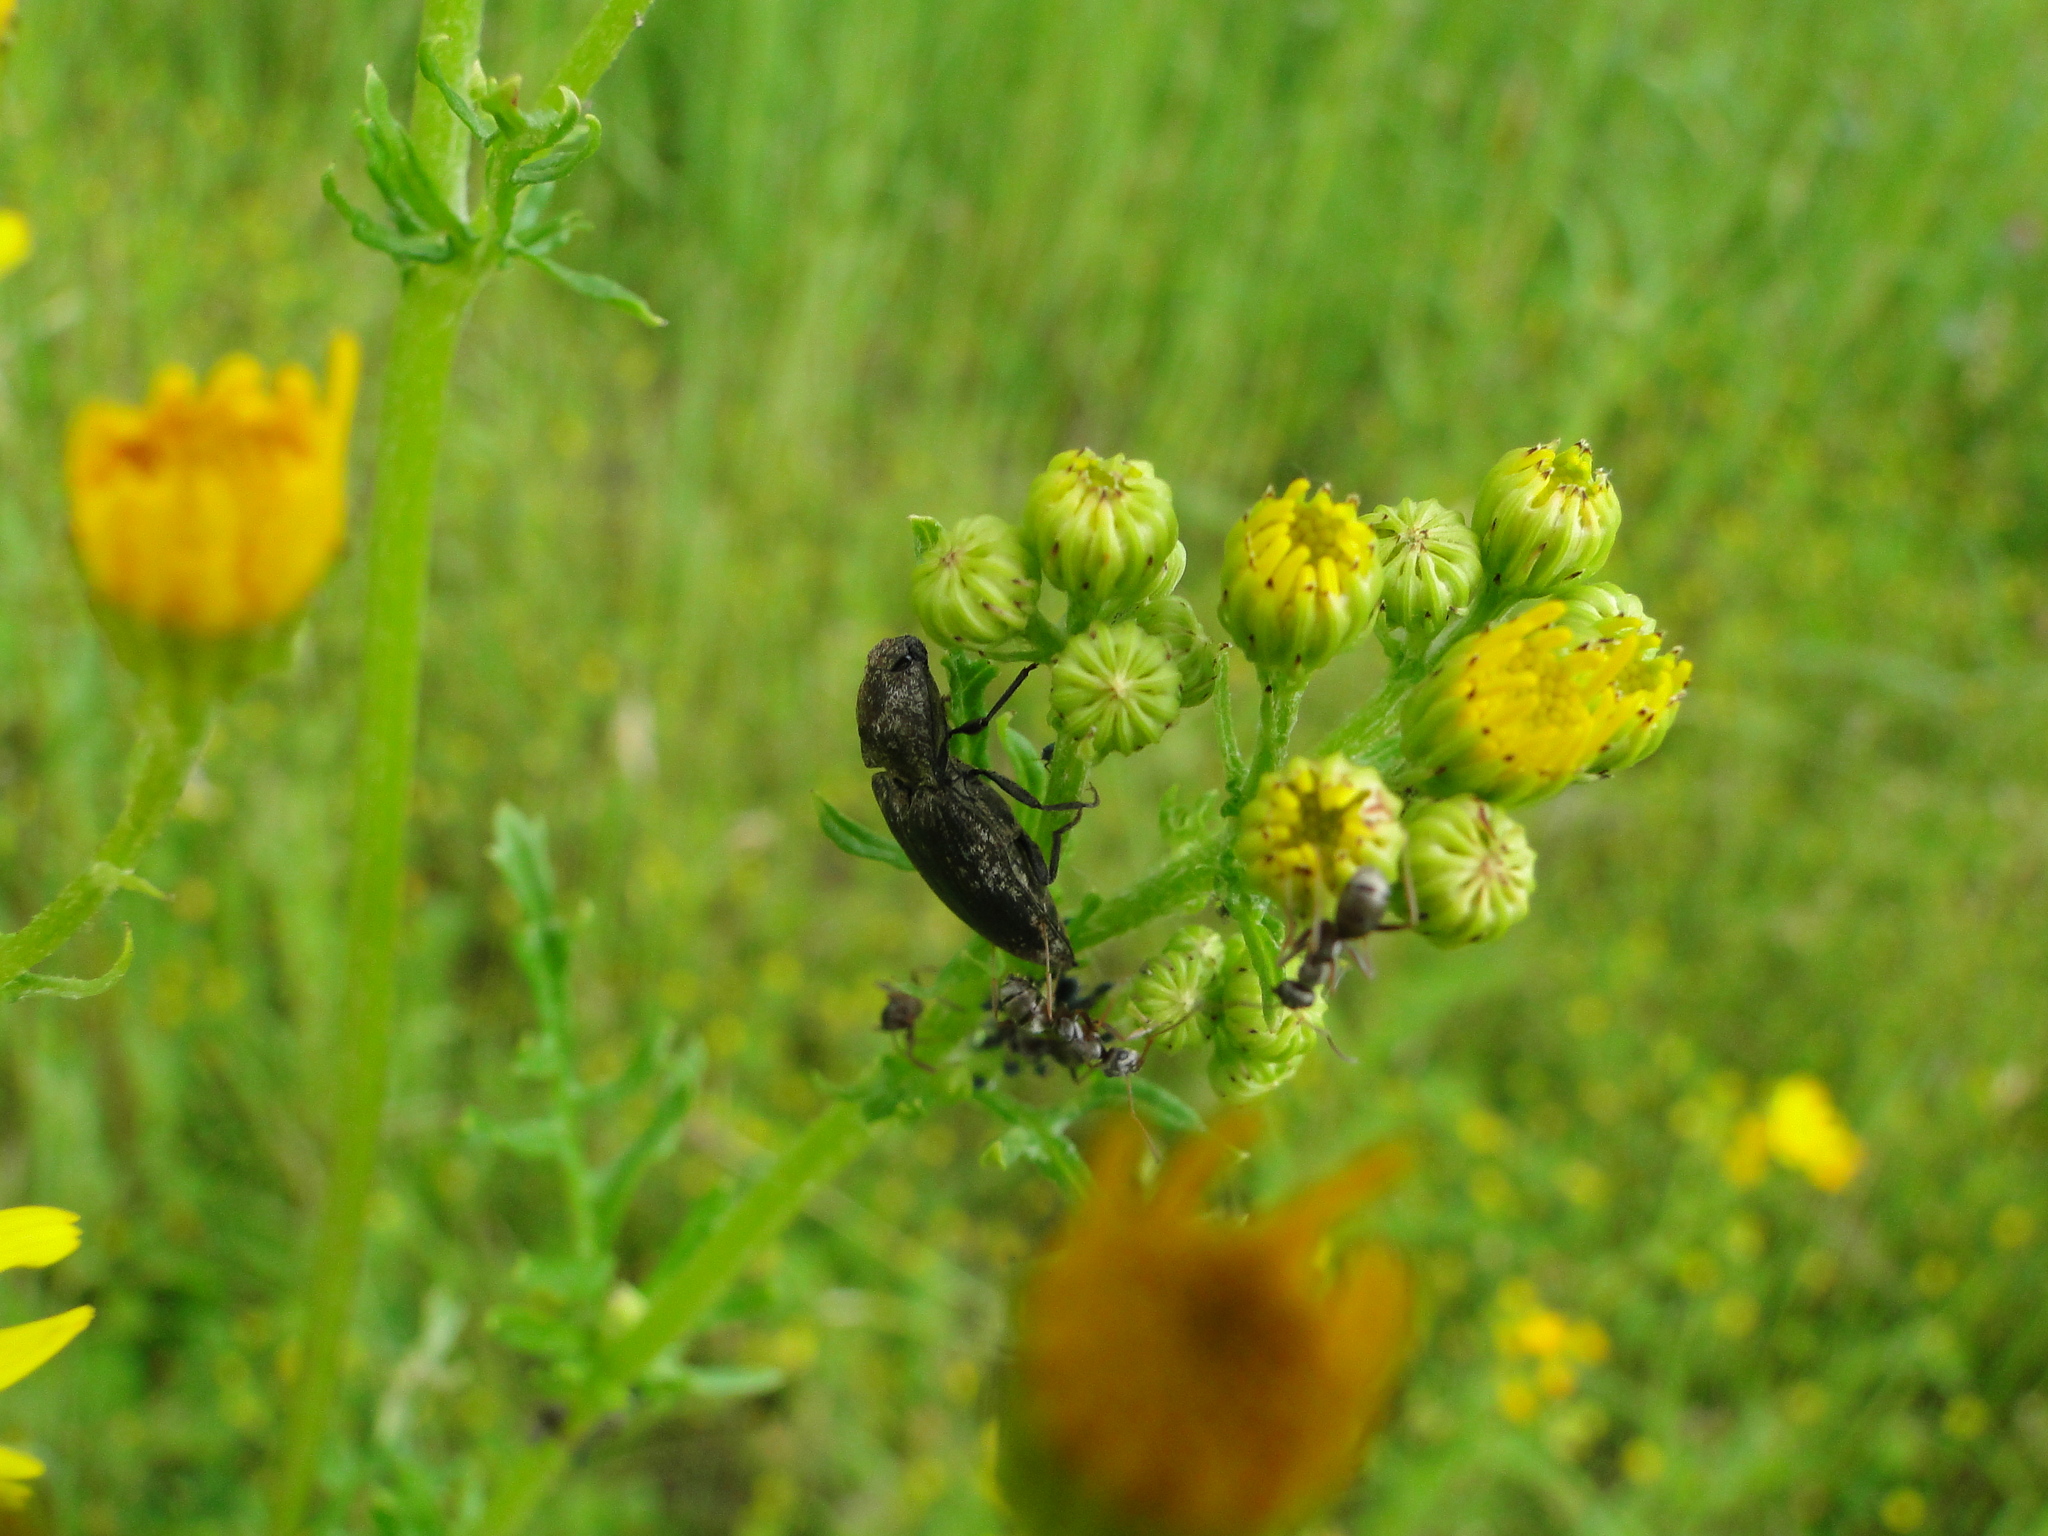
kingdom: Animalia
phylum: Arthropoda
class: Insecta
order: Coleoptera
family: Elateridae
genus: Agrypnus
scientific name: Agrypnus murinus
